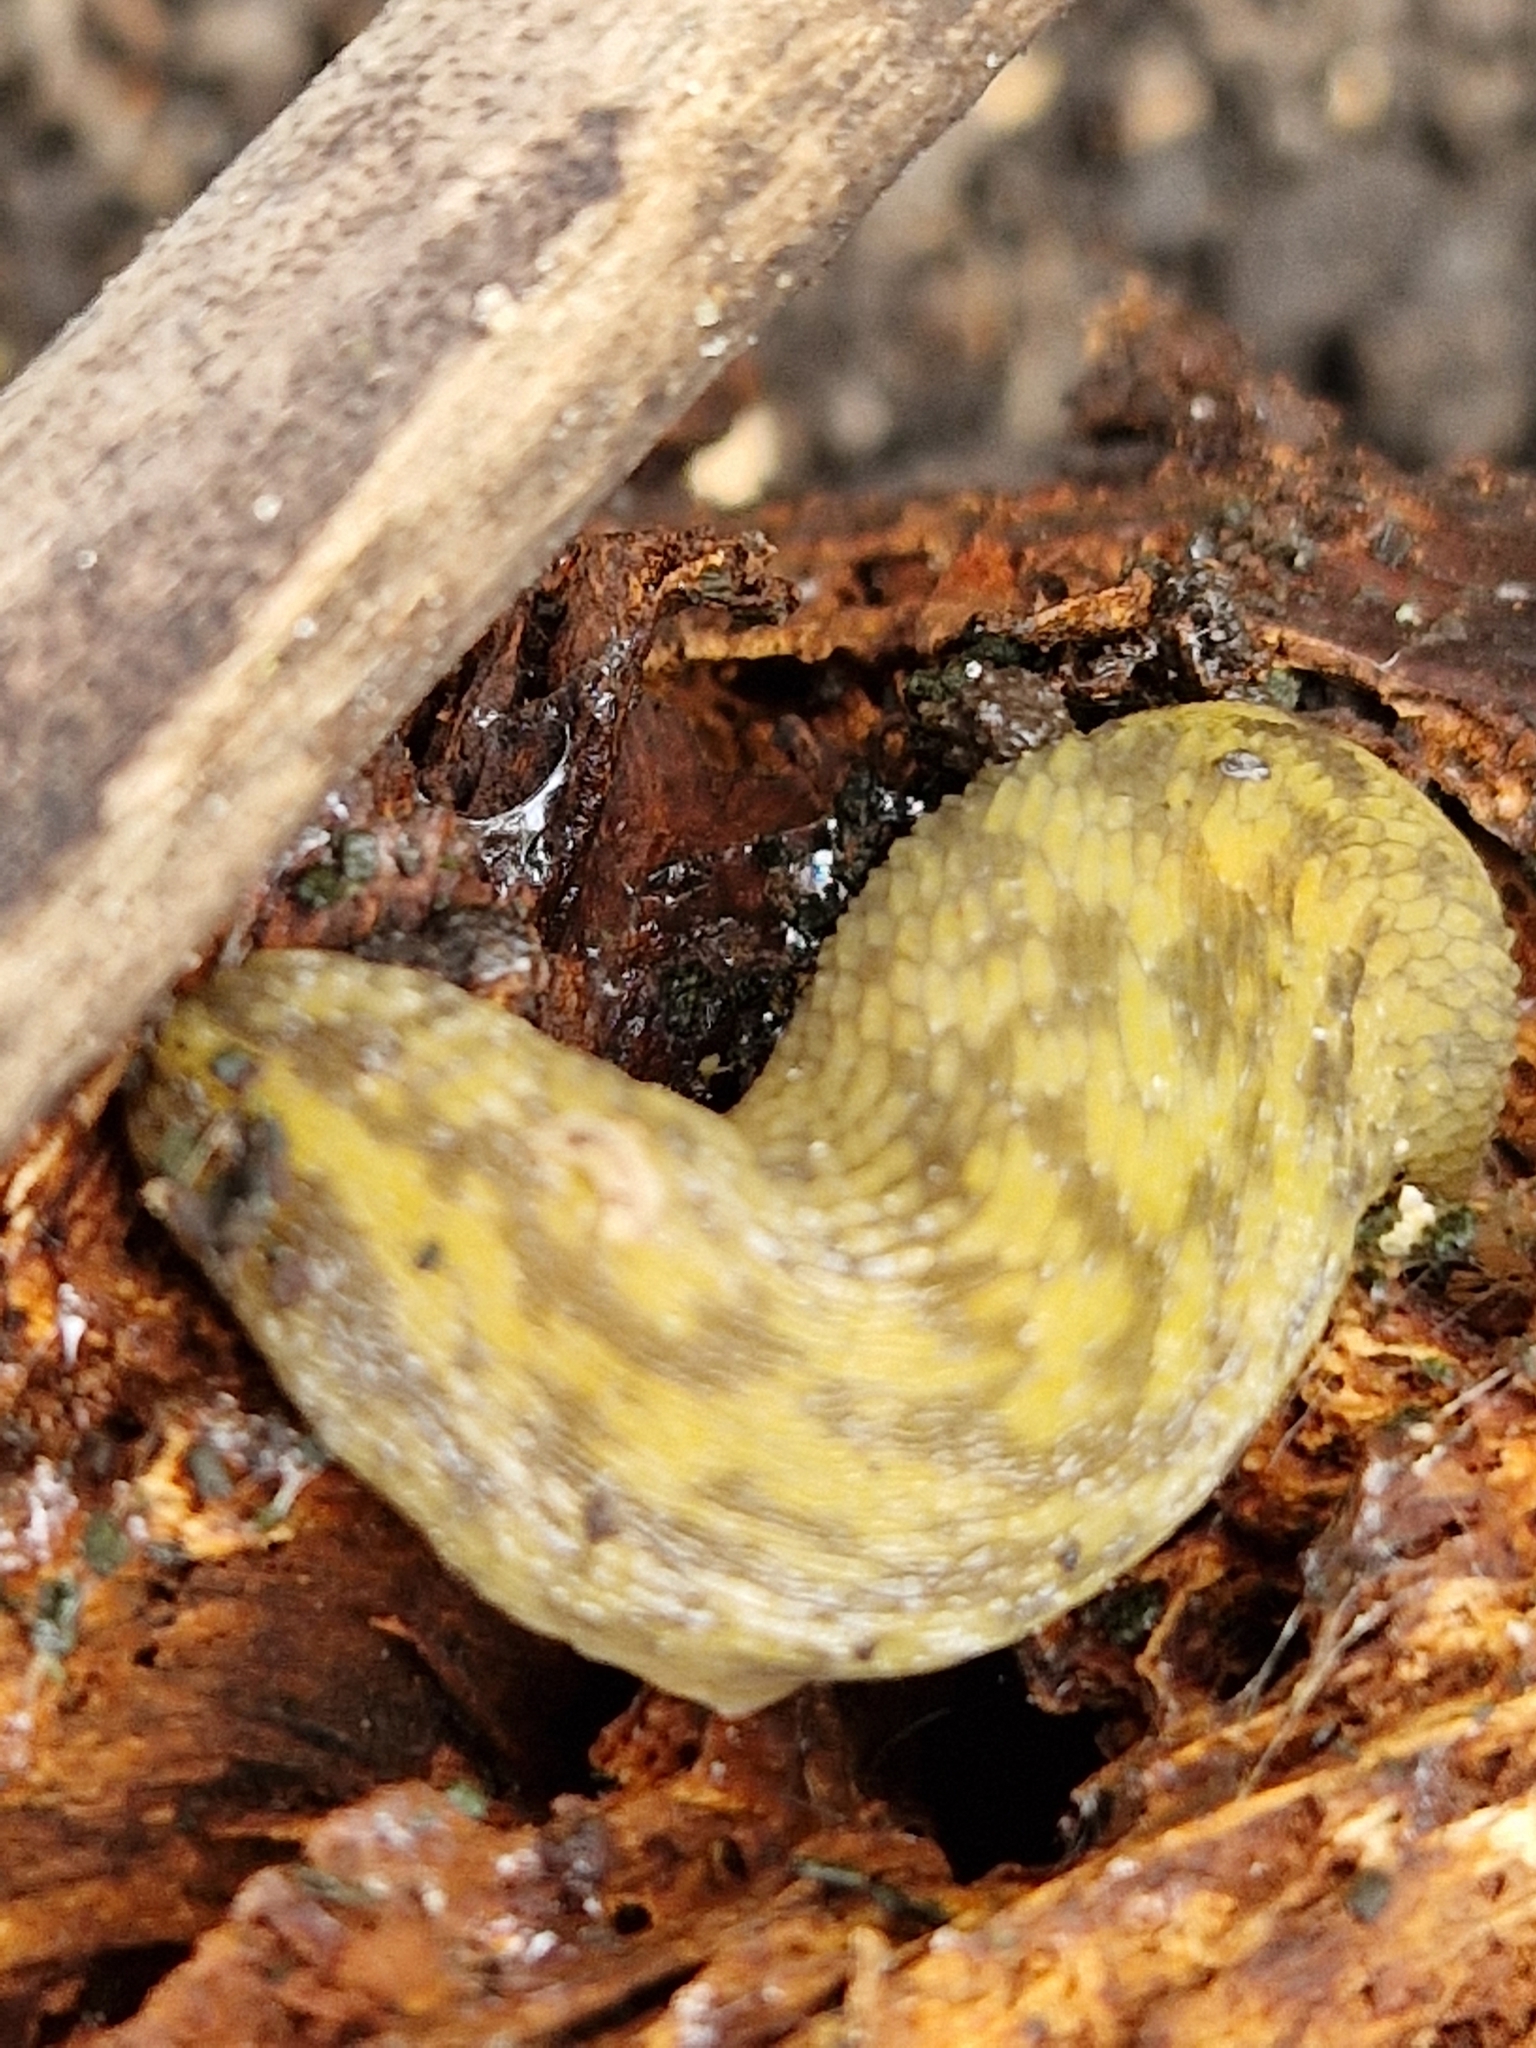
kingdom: Animalia
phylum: Mollusca
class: Gastropoda
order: Stylommatophora
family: Limacidae
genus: Limacus
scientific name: Limacus maculatus
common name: Irish yellow slug
